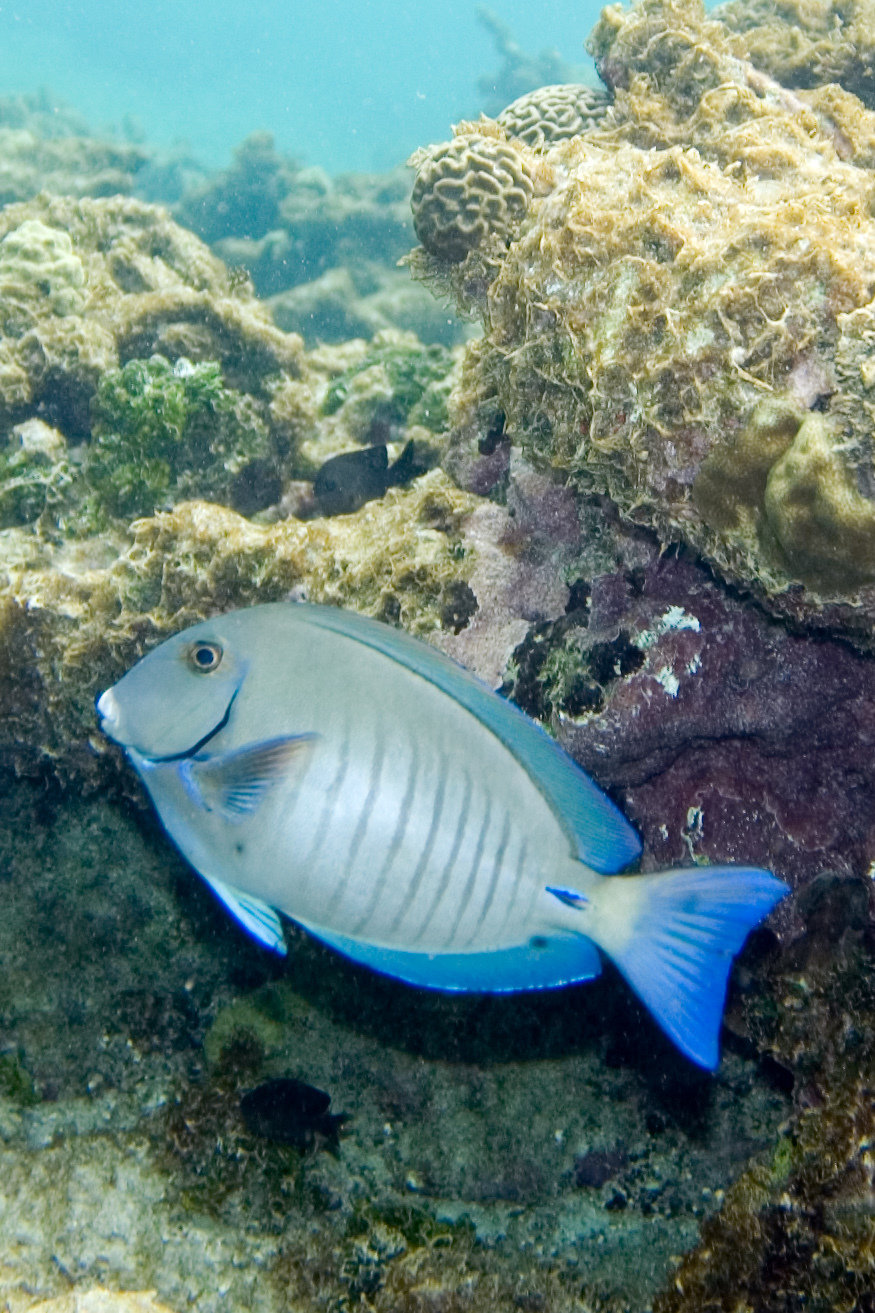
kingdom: Animalia
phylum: Chordata
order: Perciformes
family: Acanthuridae
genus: Acanthurus
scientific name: Acanthurus chirurgus
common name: Doctorfish
